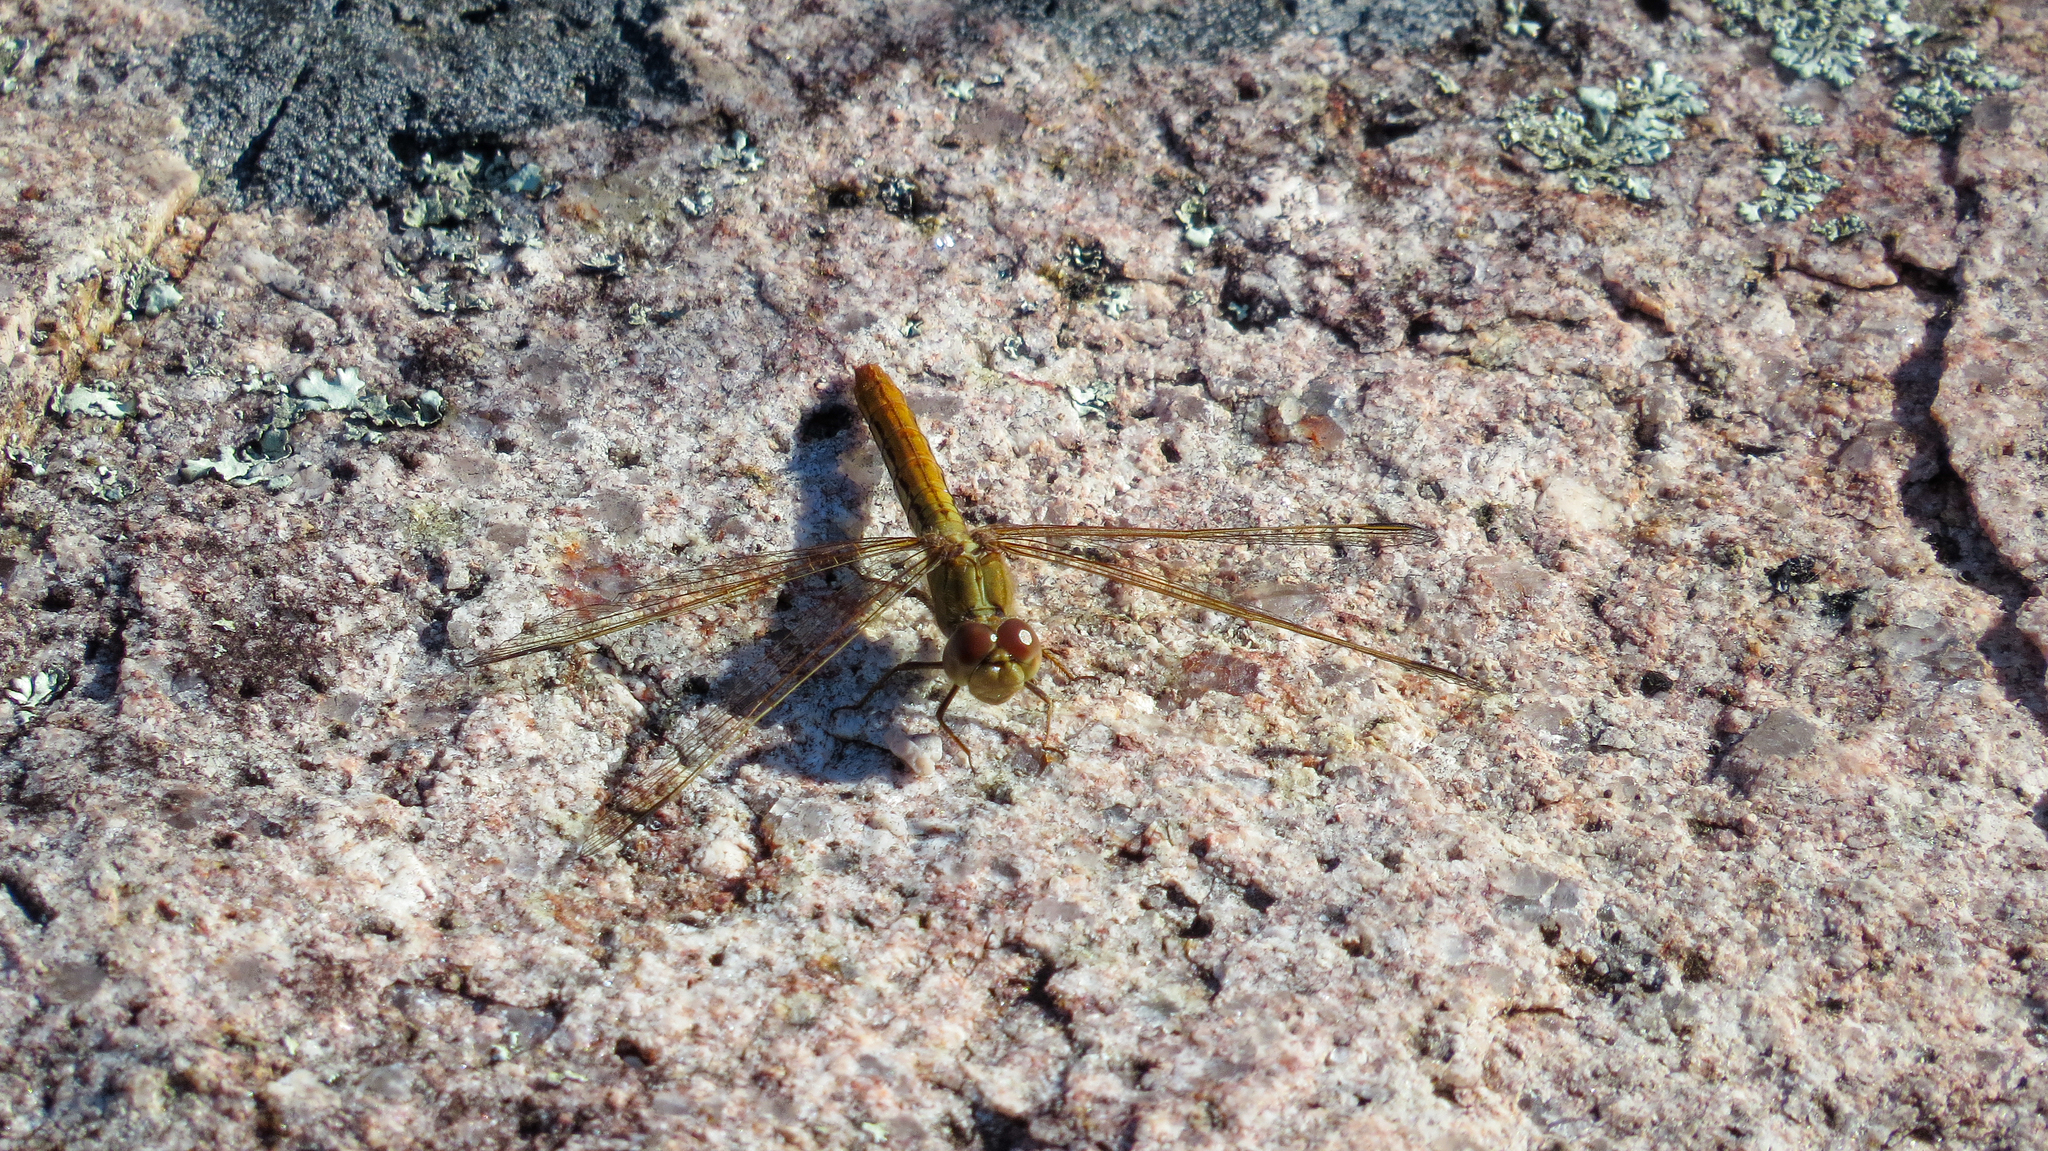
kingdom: Animalia
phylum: Arthropoda
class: Insecta
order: Odonata
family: Libellulidae
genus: Diplacodes
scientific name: Diplacodes haematodes
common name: Scarlet percher
